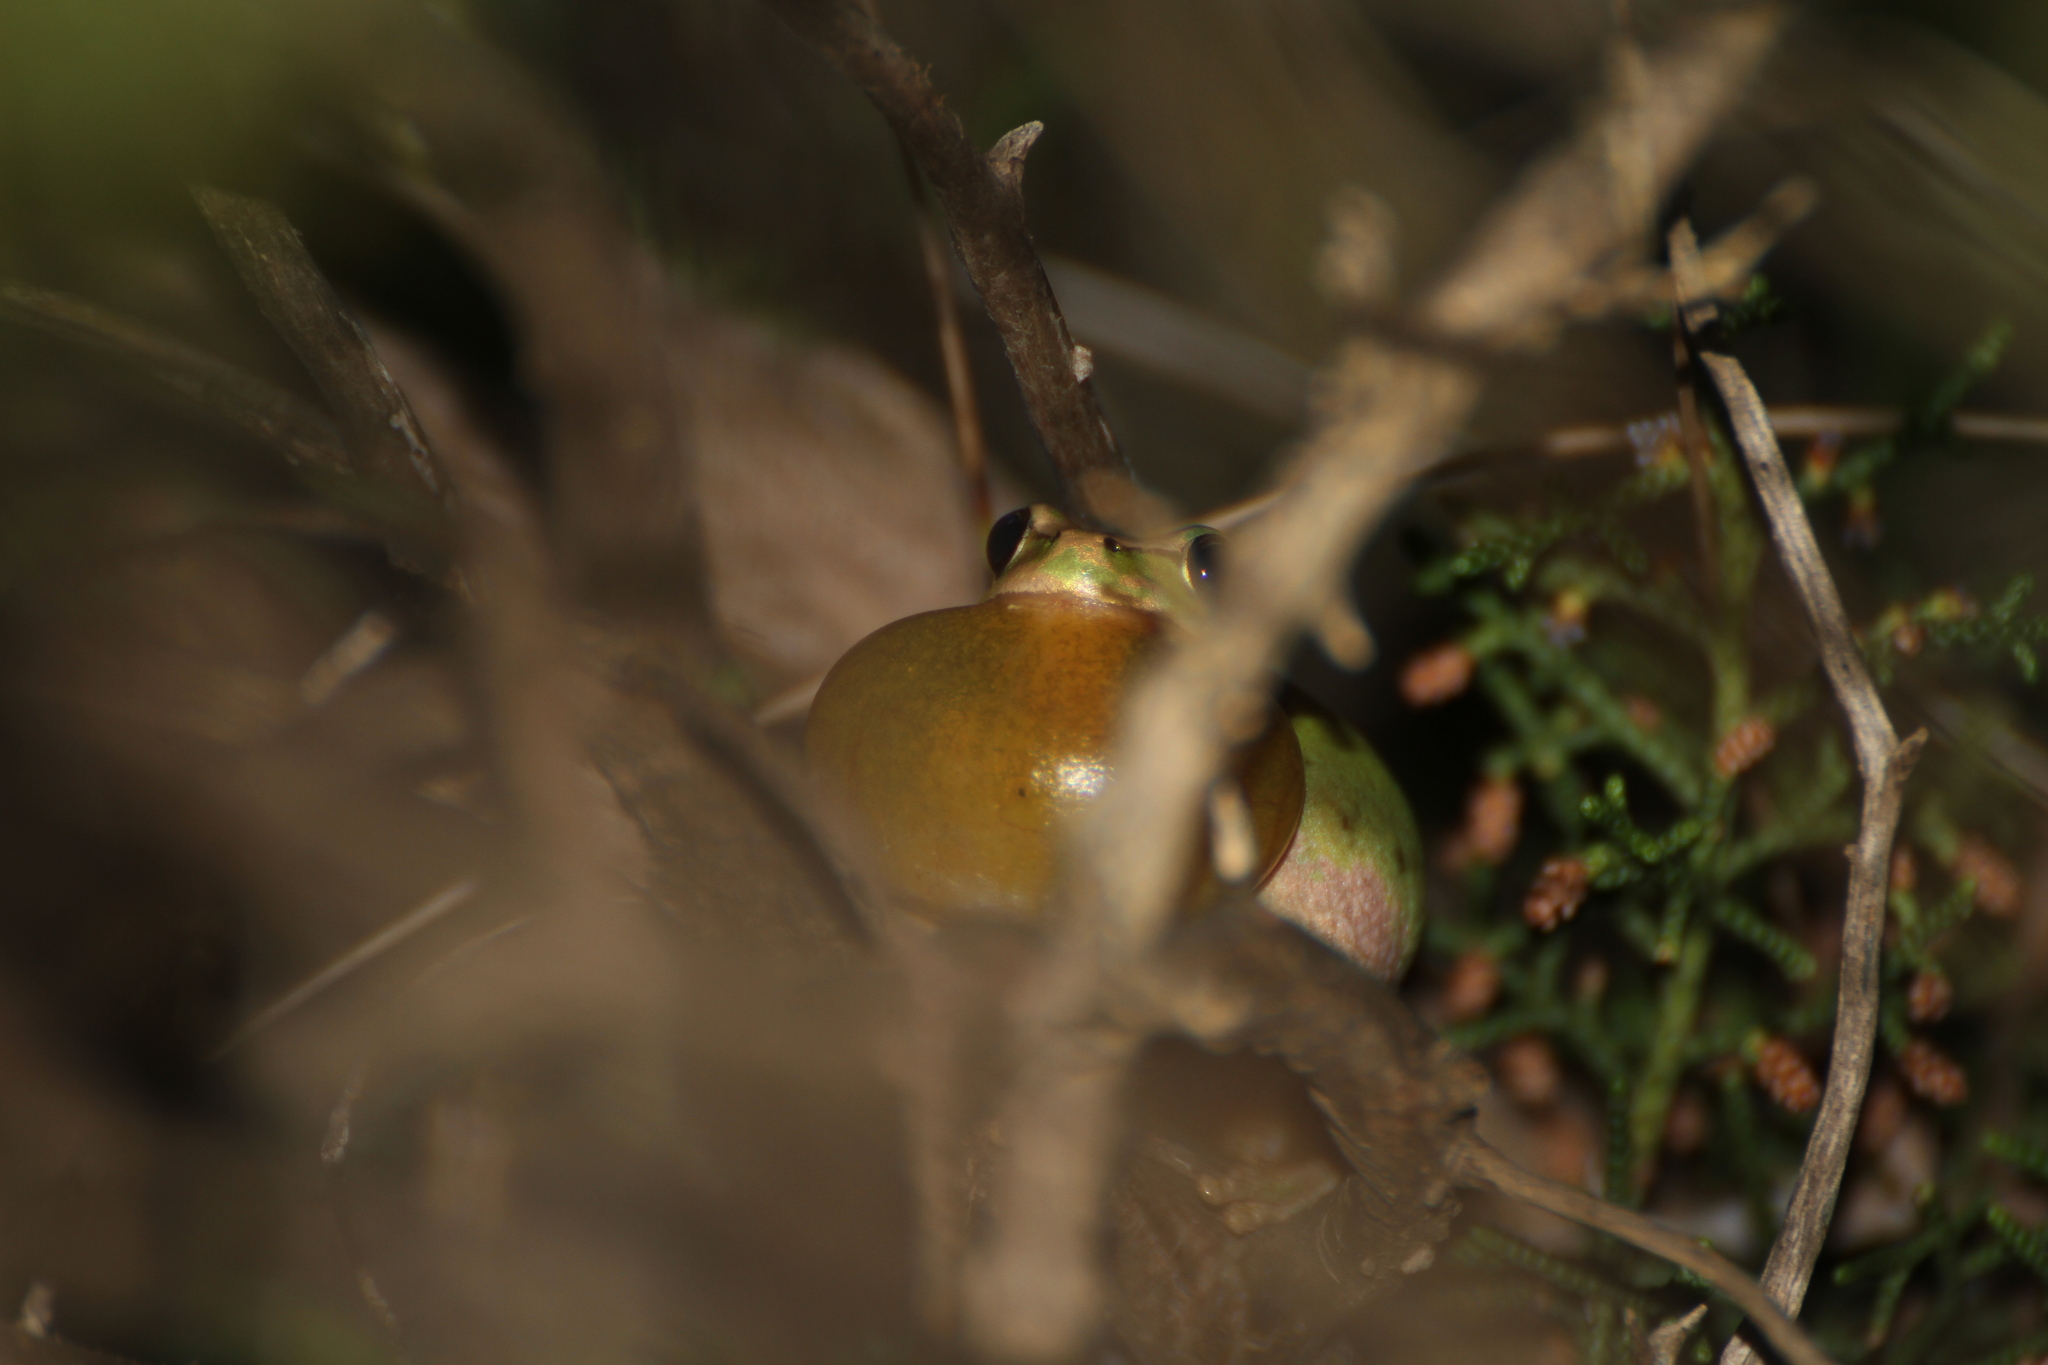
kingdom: Animalia
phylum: Chordata
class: Amphibia
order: Anura
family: Hylidae
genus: Hyla
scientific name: Hyla meridionalis
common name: Stripeless tree frog
